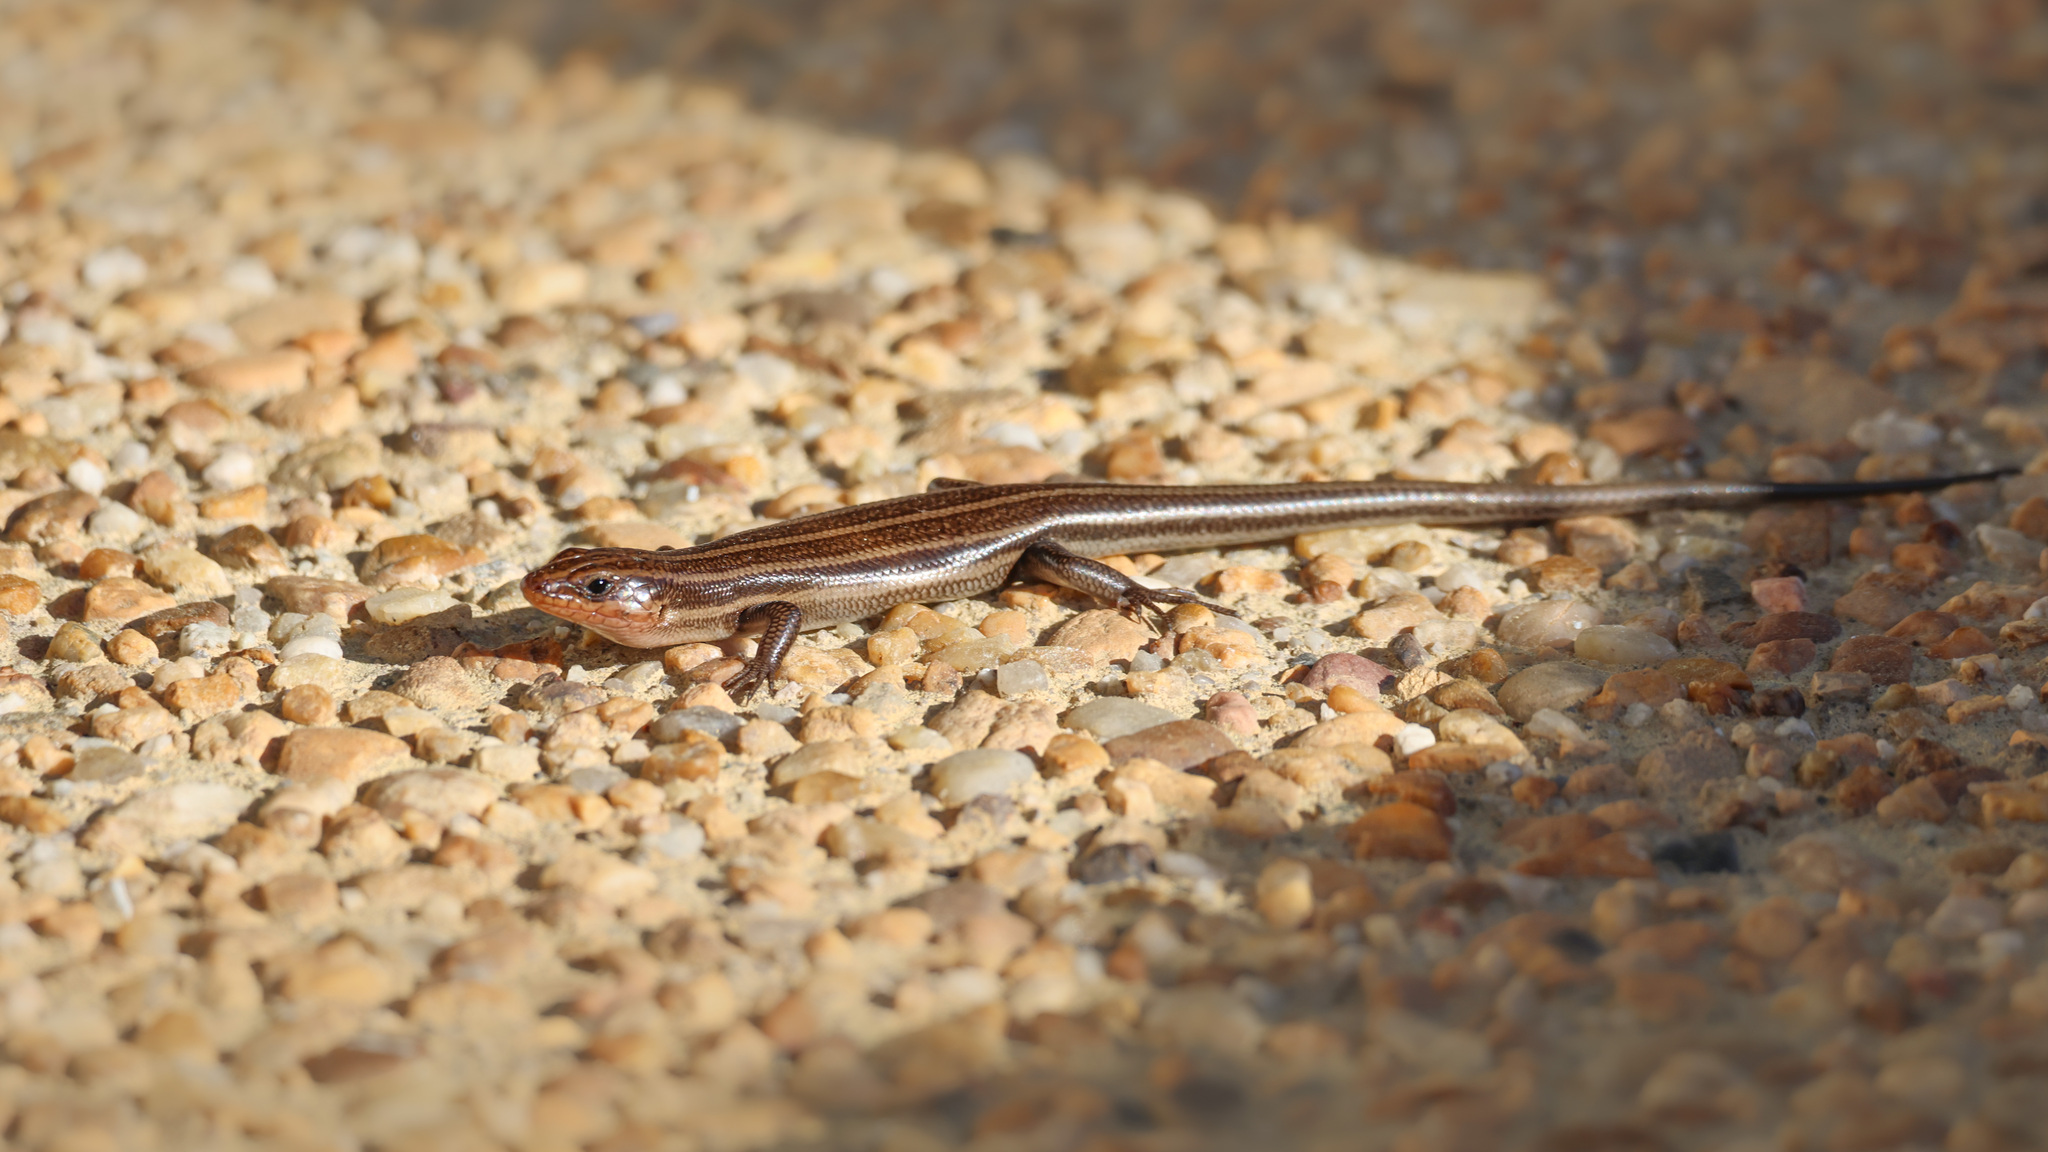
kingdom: Animalia
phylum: Chordata
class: Squamata
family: Scincidae
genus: Plestiodon
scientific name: Plestiodon fasciatus
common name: Five-lined skink
